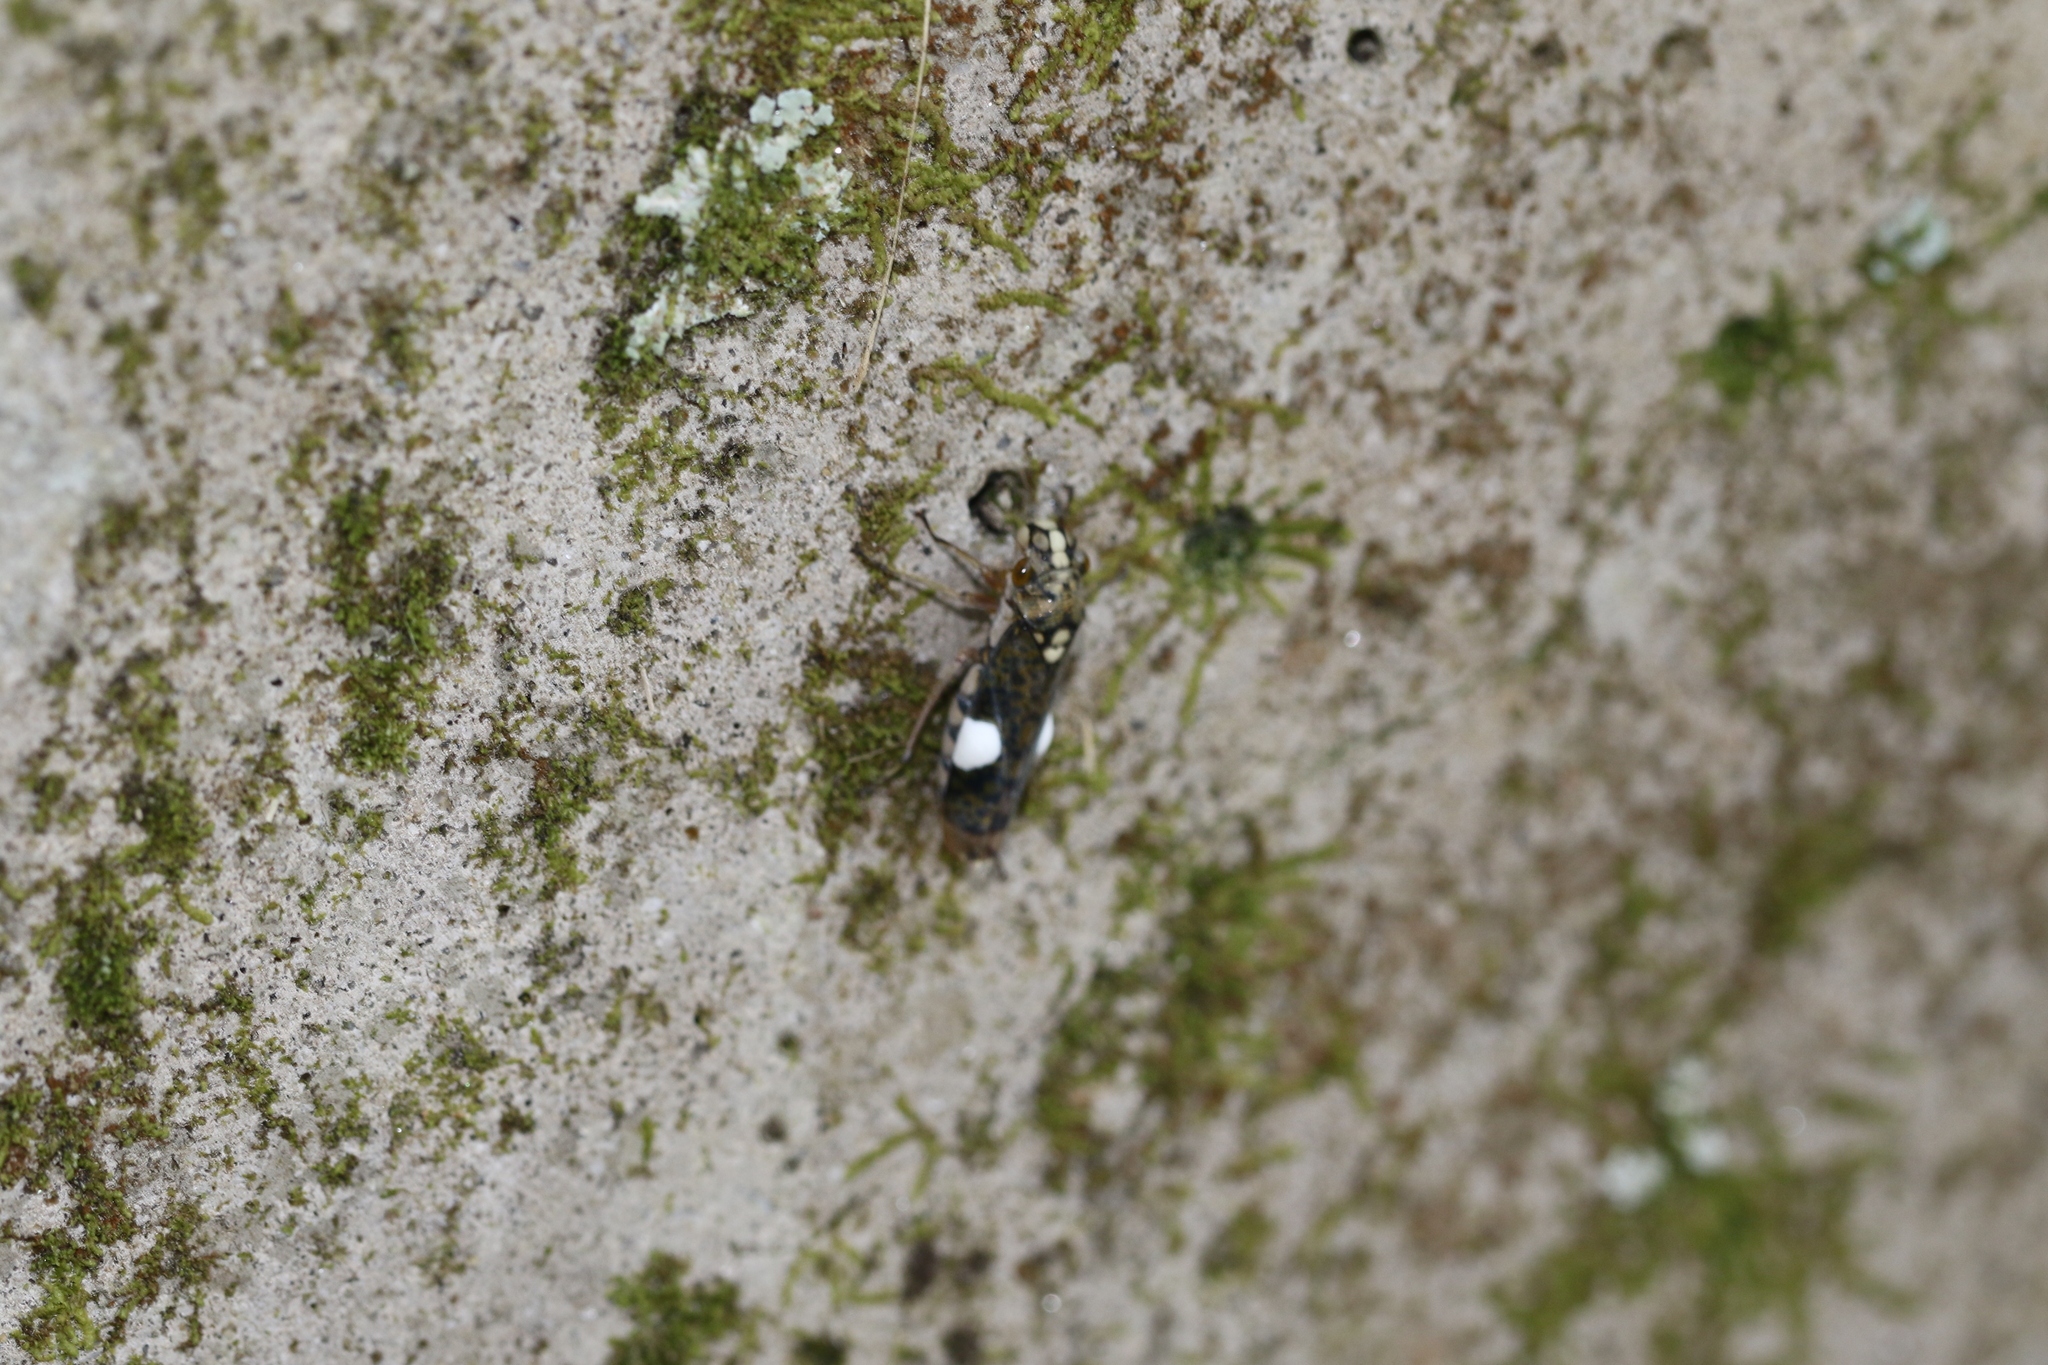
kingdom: Animalia
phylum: Arthropoda
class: Insecta
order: Hemiptera
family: Cicadellidae
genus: Molomea
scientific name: Molomea hamleti
